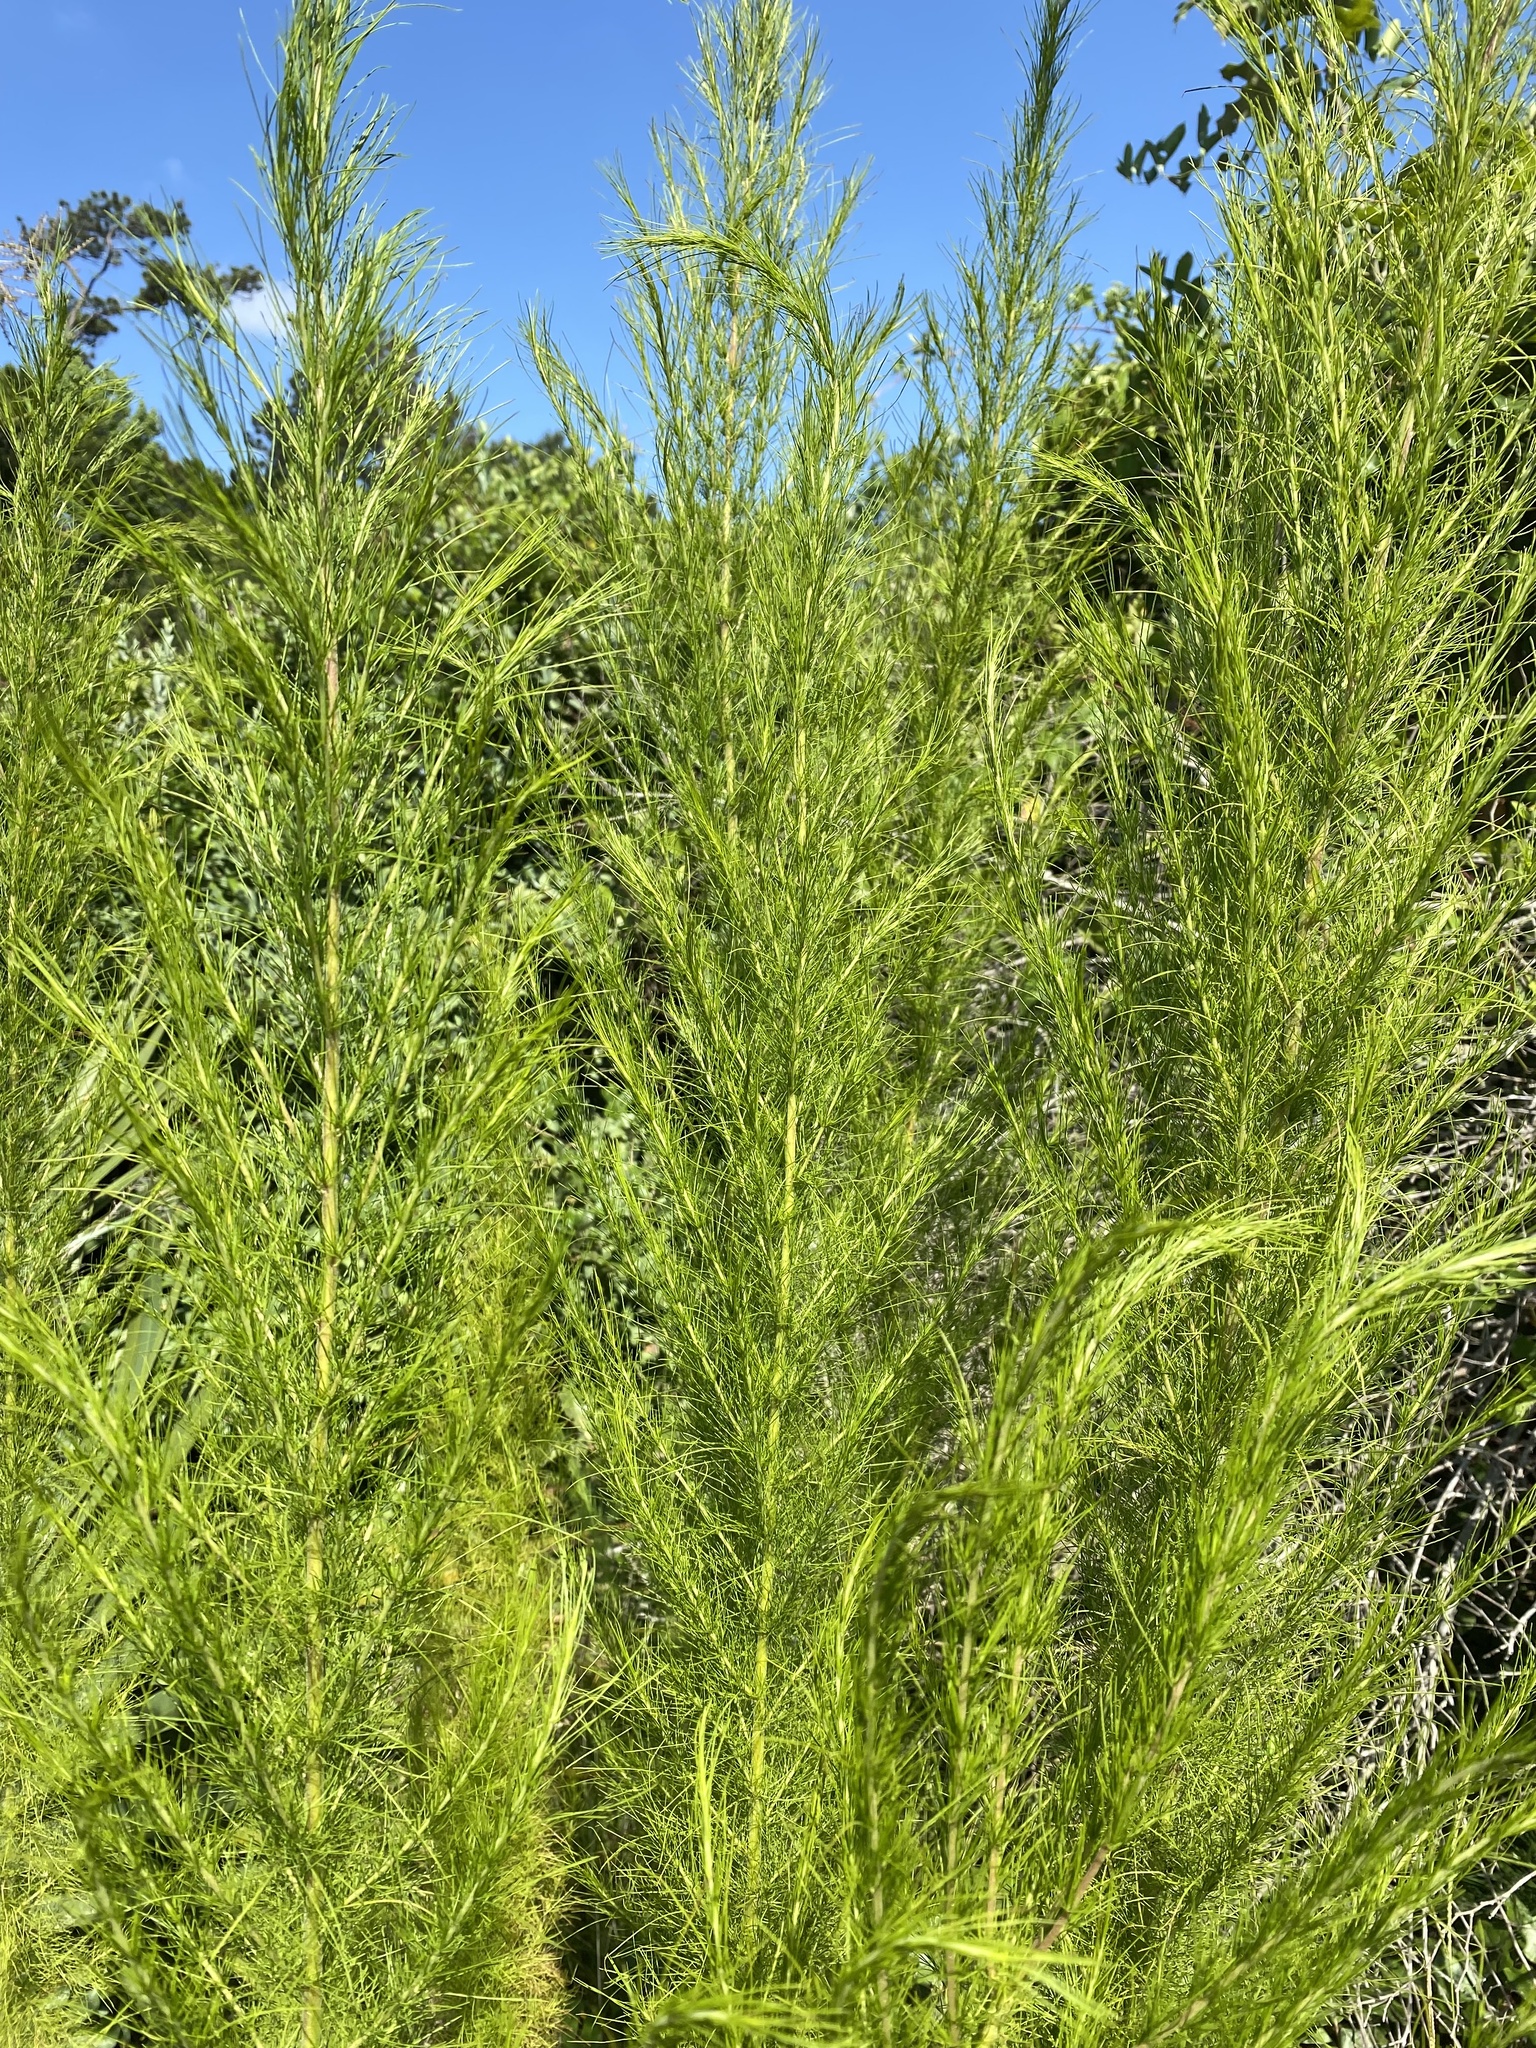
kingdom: Plantae
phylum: Tracheophyta
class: Magnoliopsida
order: Asterales
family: Asteraceae
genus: Eupatorium
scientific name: Eupatorium capillifolium
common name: Dog-fennel
